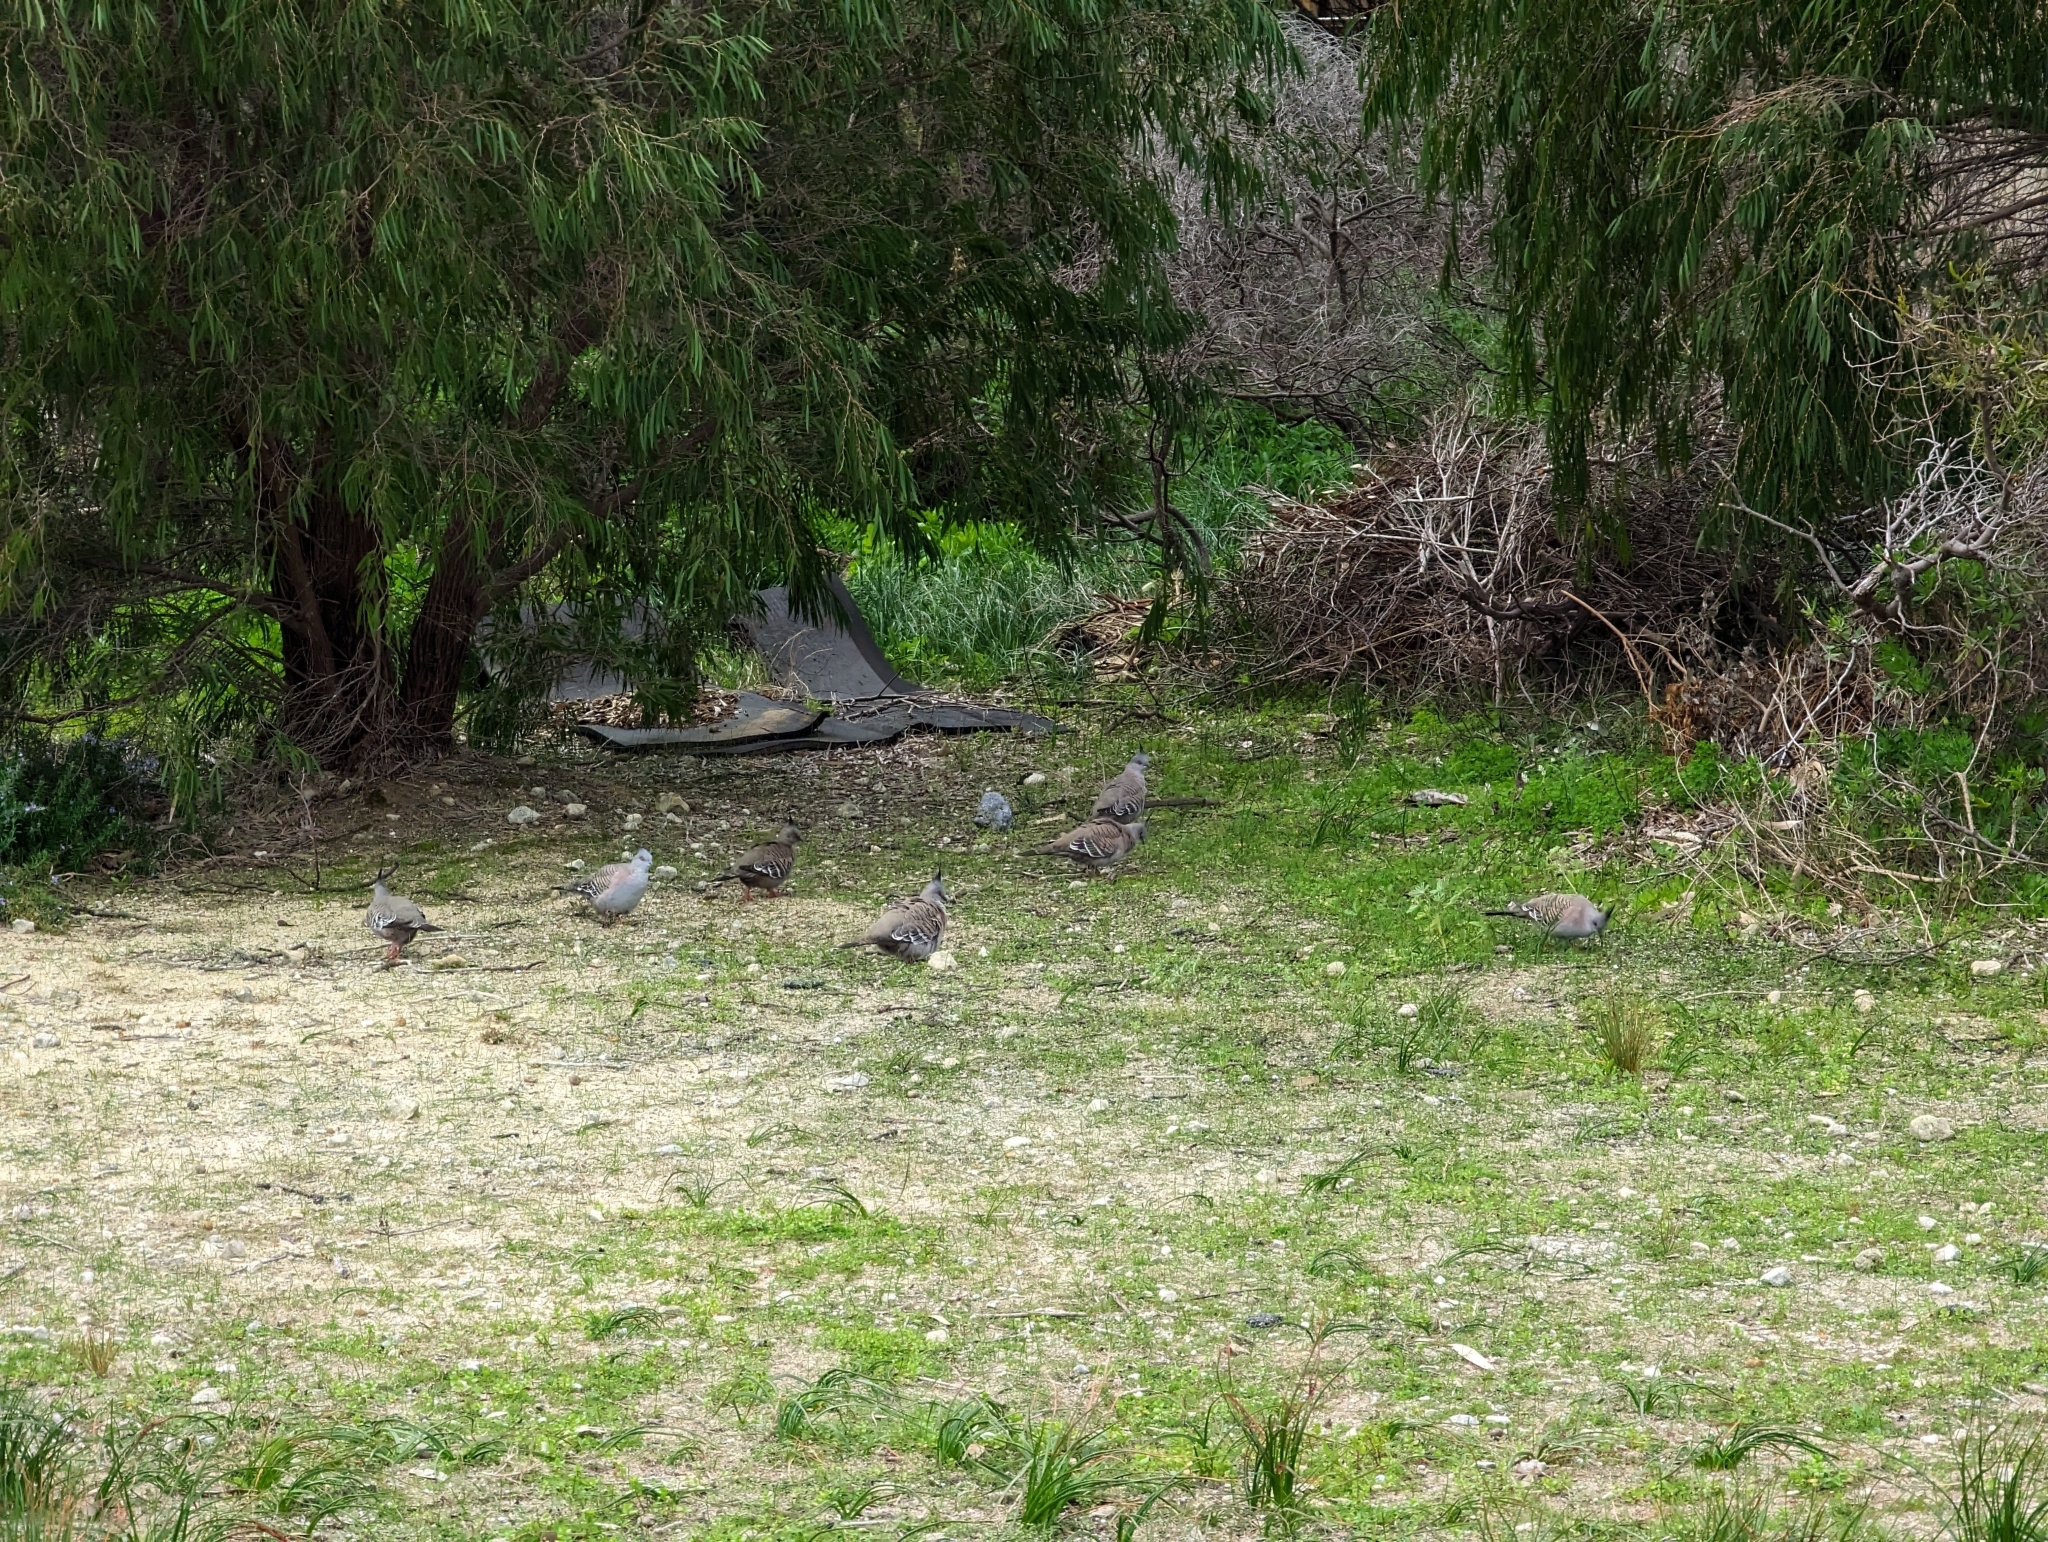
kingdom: Animalia
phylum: Chordata
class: Aves
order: Columbiformes
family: Columbidae
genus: Ocyphaps
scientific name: Ocyphaps lophotes
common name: Crested pigeon
